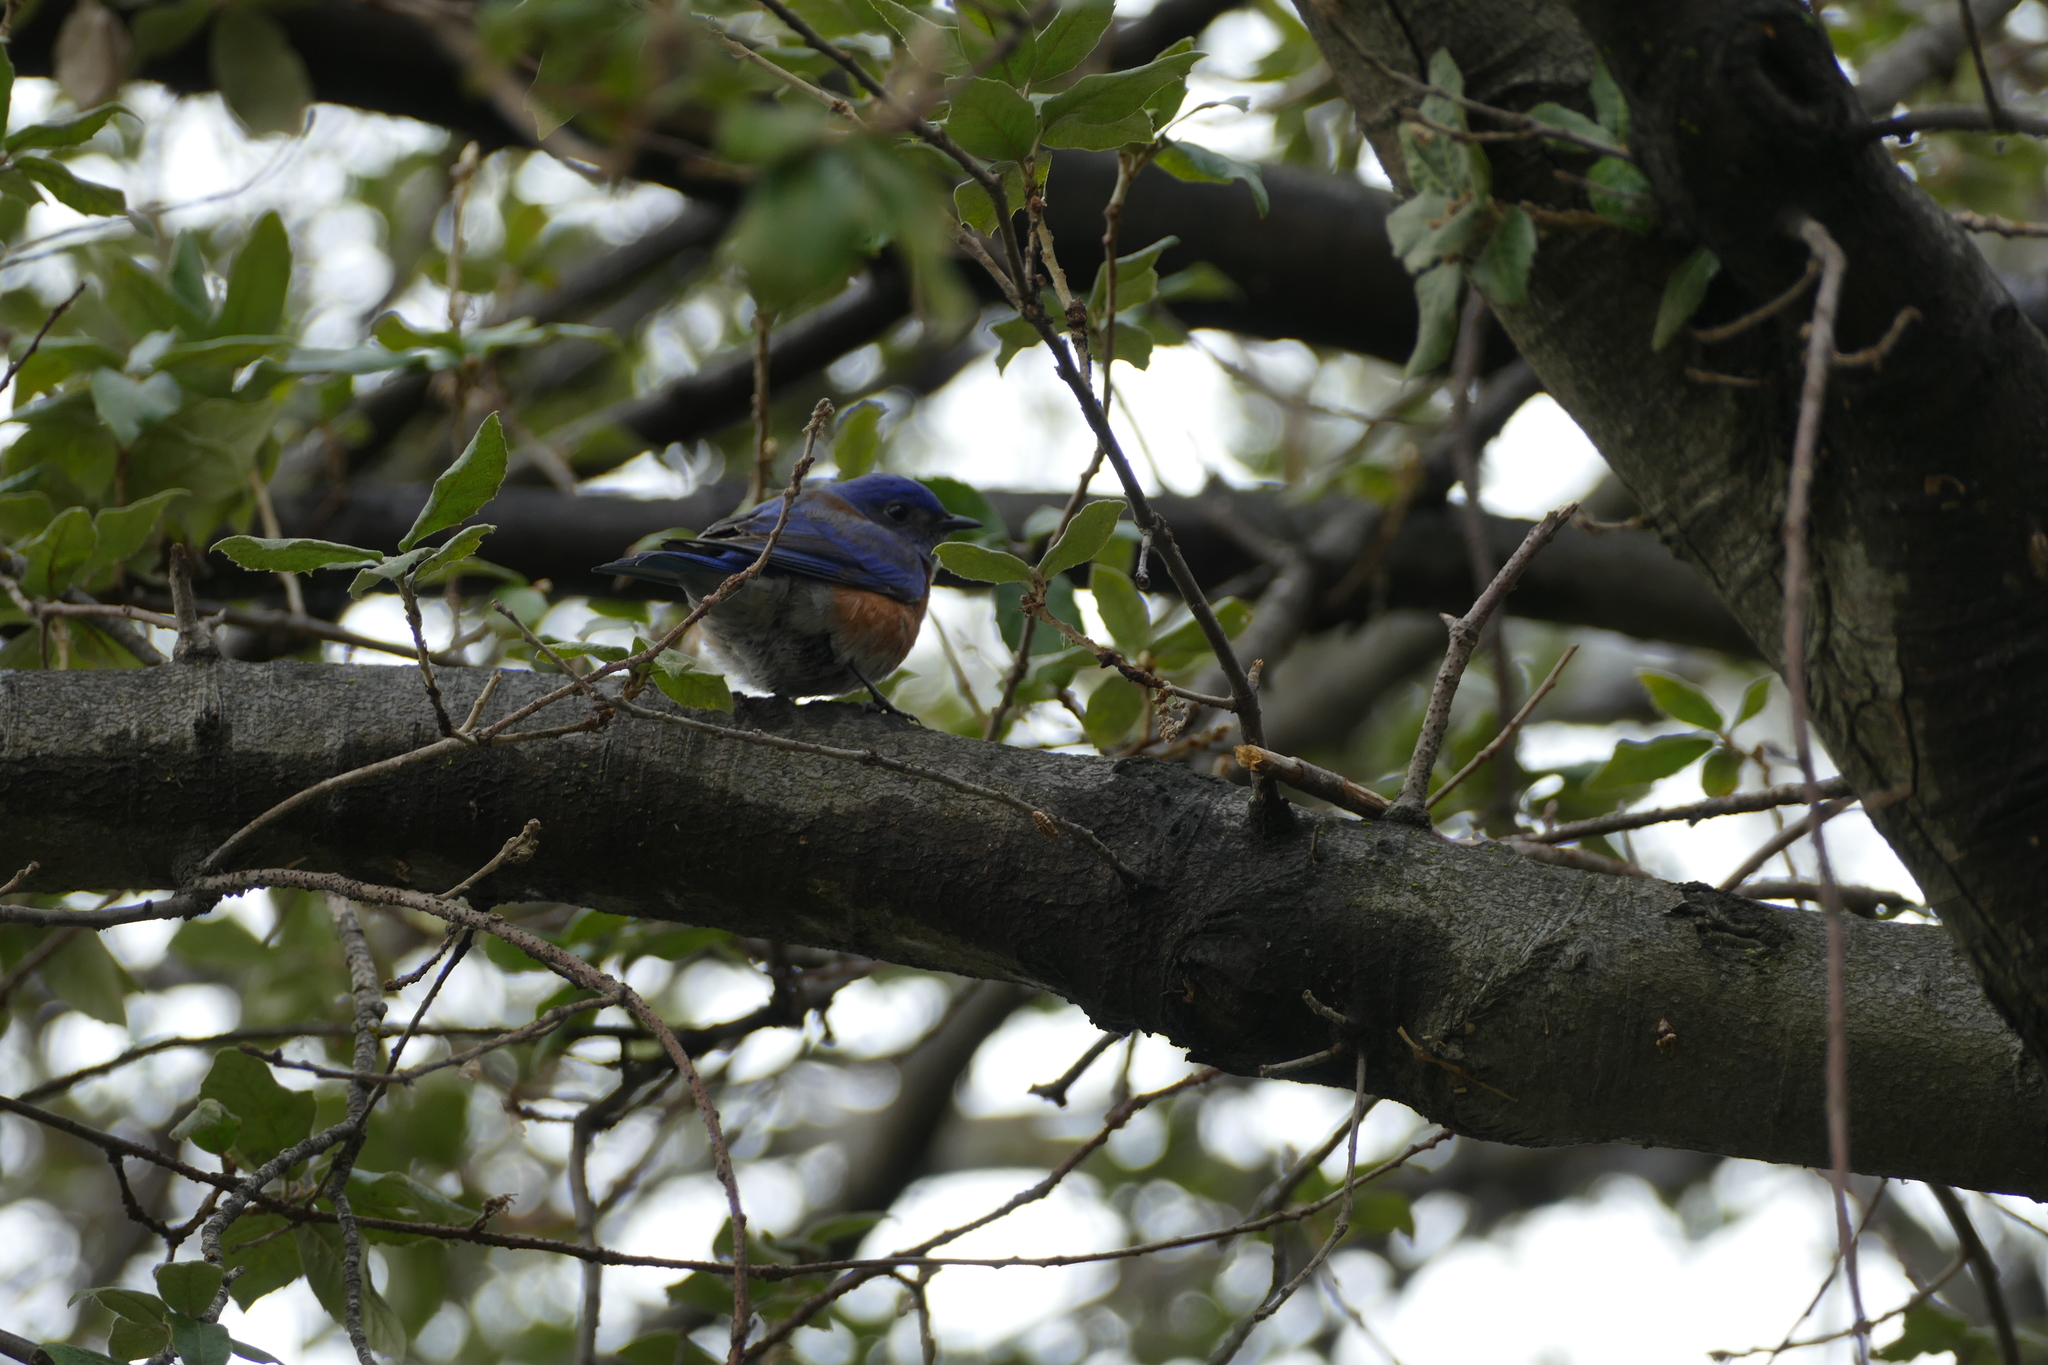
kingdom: Animalia
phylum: Chordata
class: Aves
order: Passeriformes
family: Turdidae
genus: Sialia
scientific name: Sialia mexicana
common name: Western bluebird
